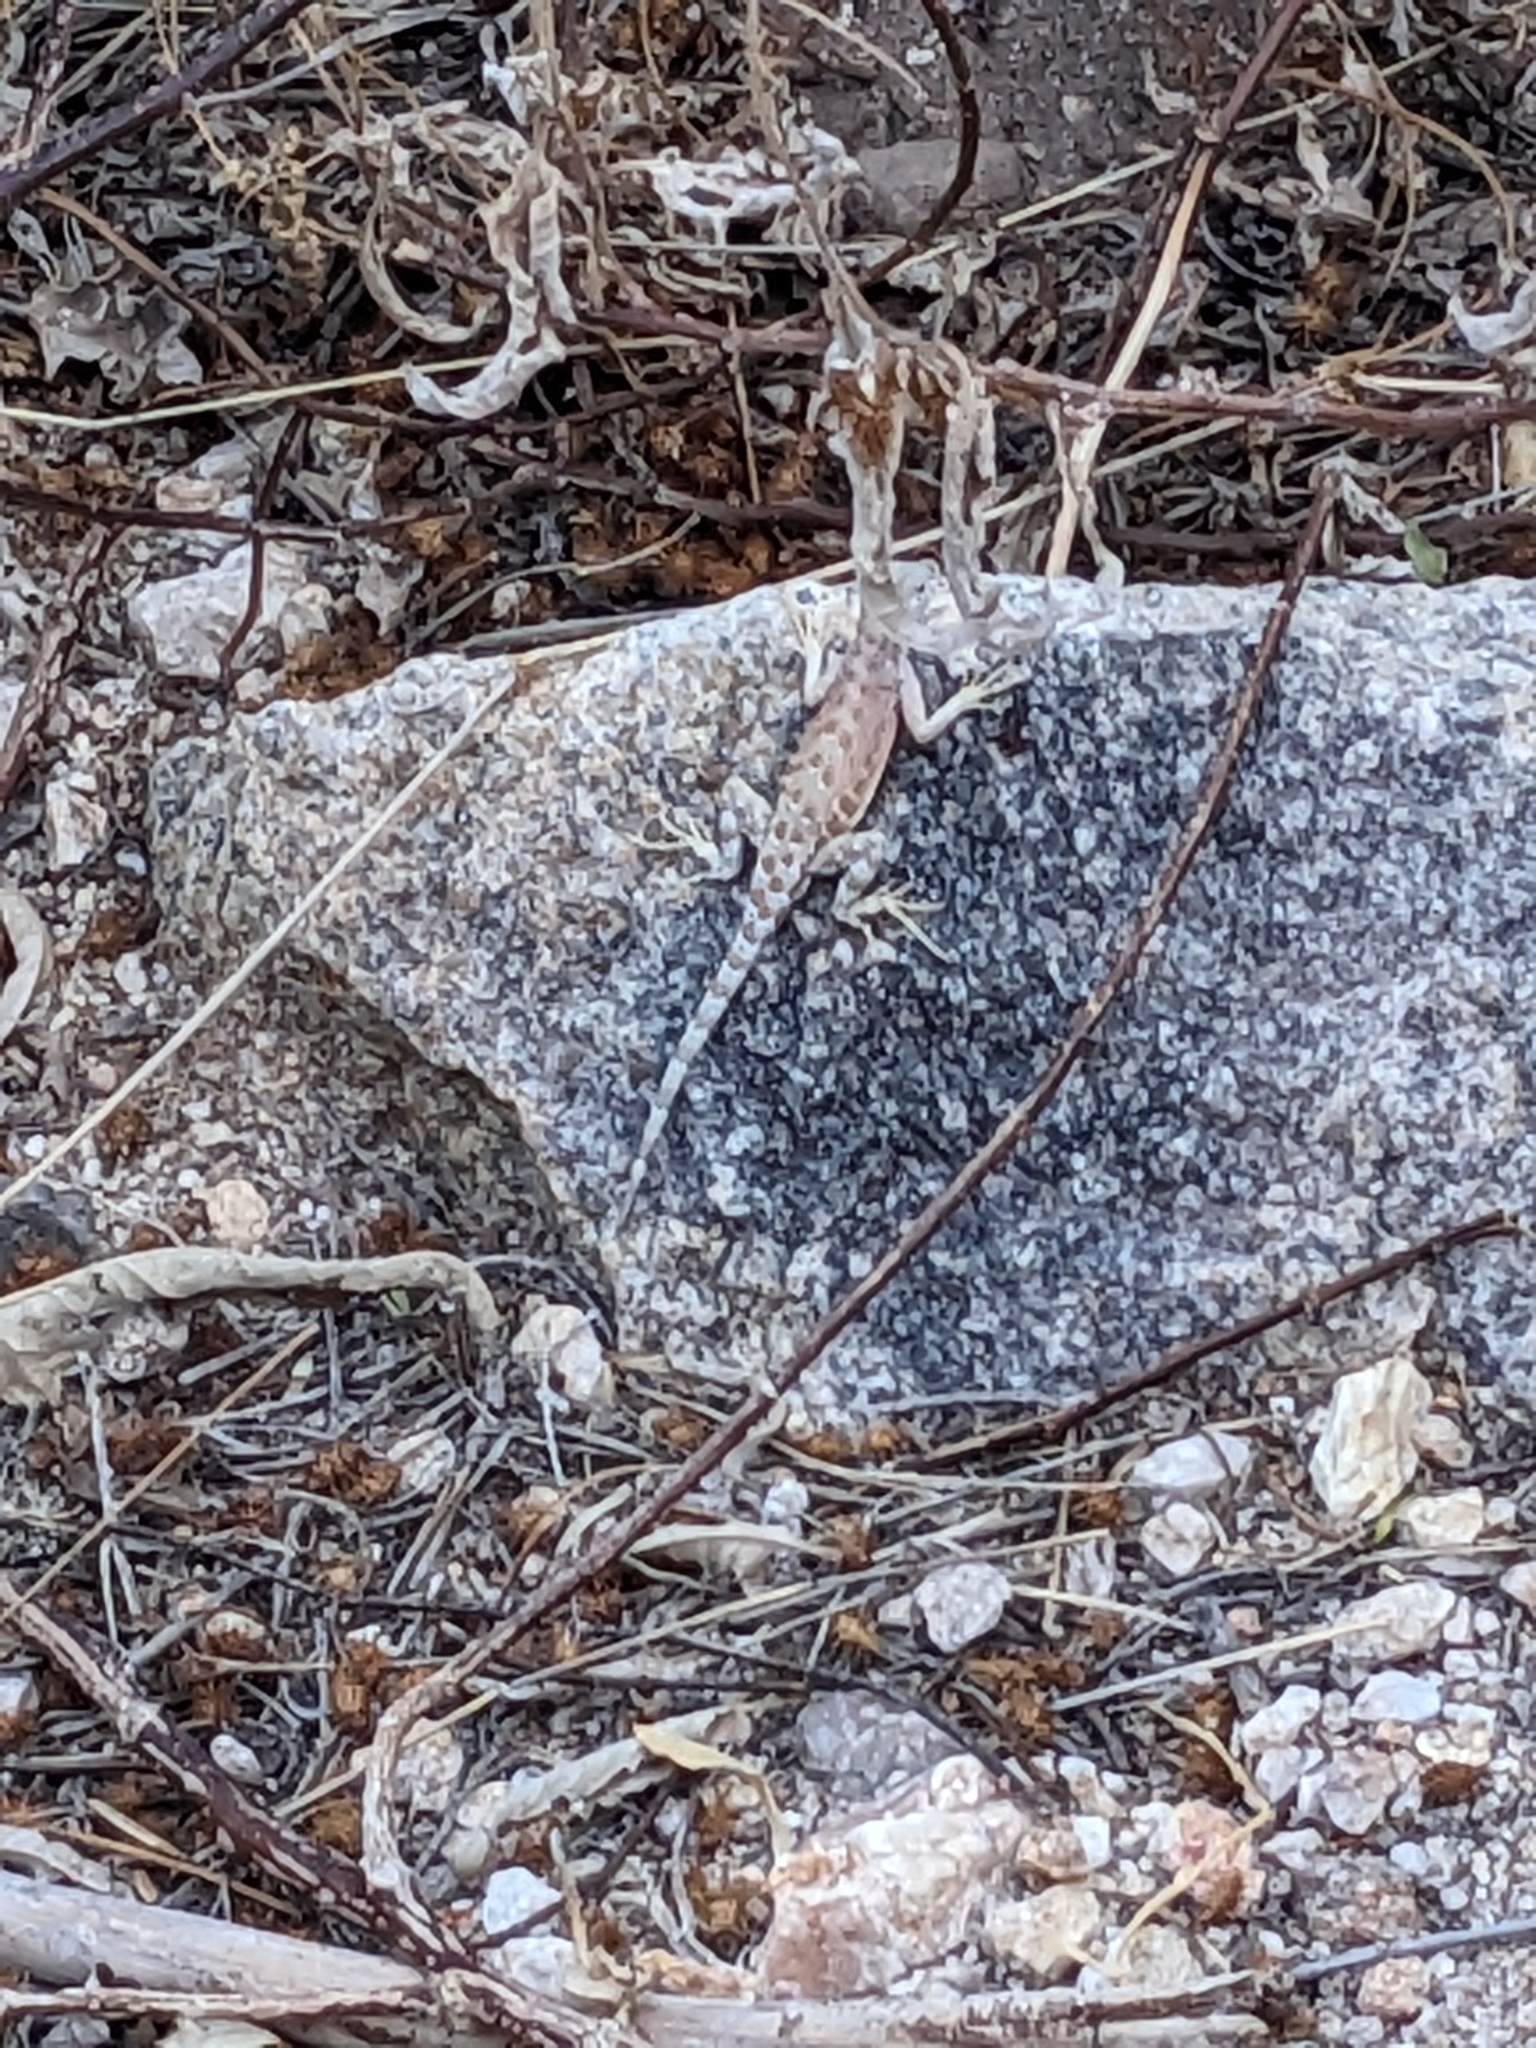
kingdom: Animalia
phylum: Chordata
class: Squamata
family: Phrynosomatidae
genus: Cophosaurus
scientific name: Cophosaurus texanus
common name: Greater earless lizard
